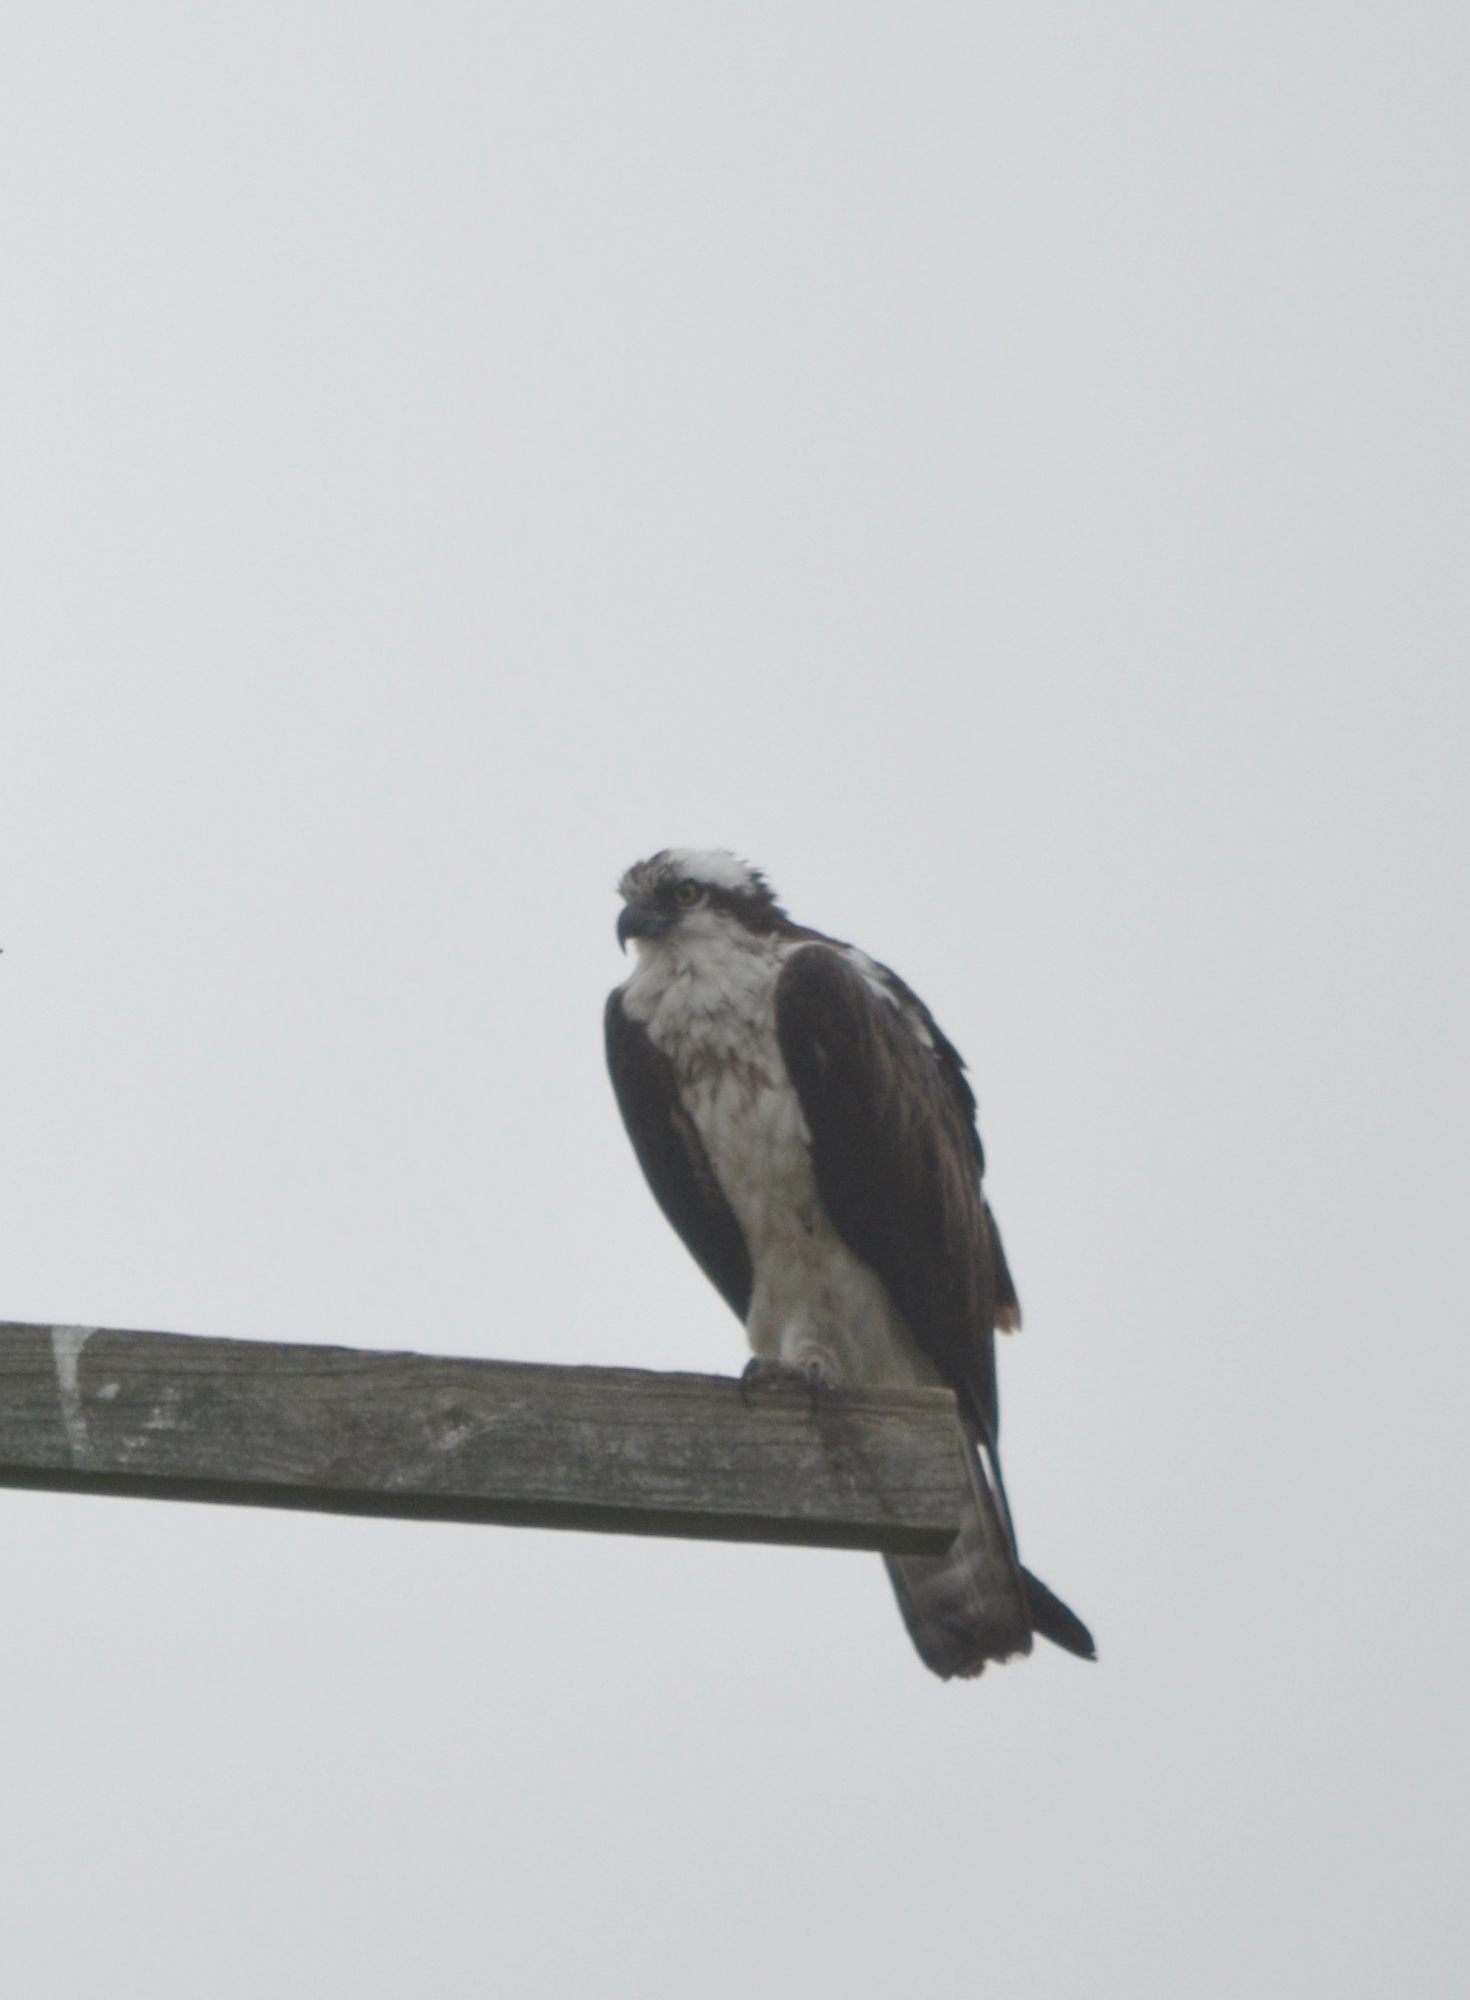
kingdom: Animalia
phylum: Chordata
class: Aves
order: Accipitriformes
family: Pandionidae
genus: Pandion
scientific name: Pandion haliaetus
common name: Osprey
